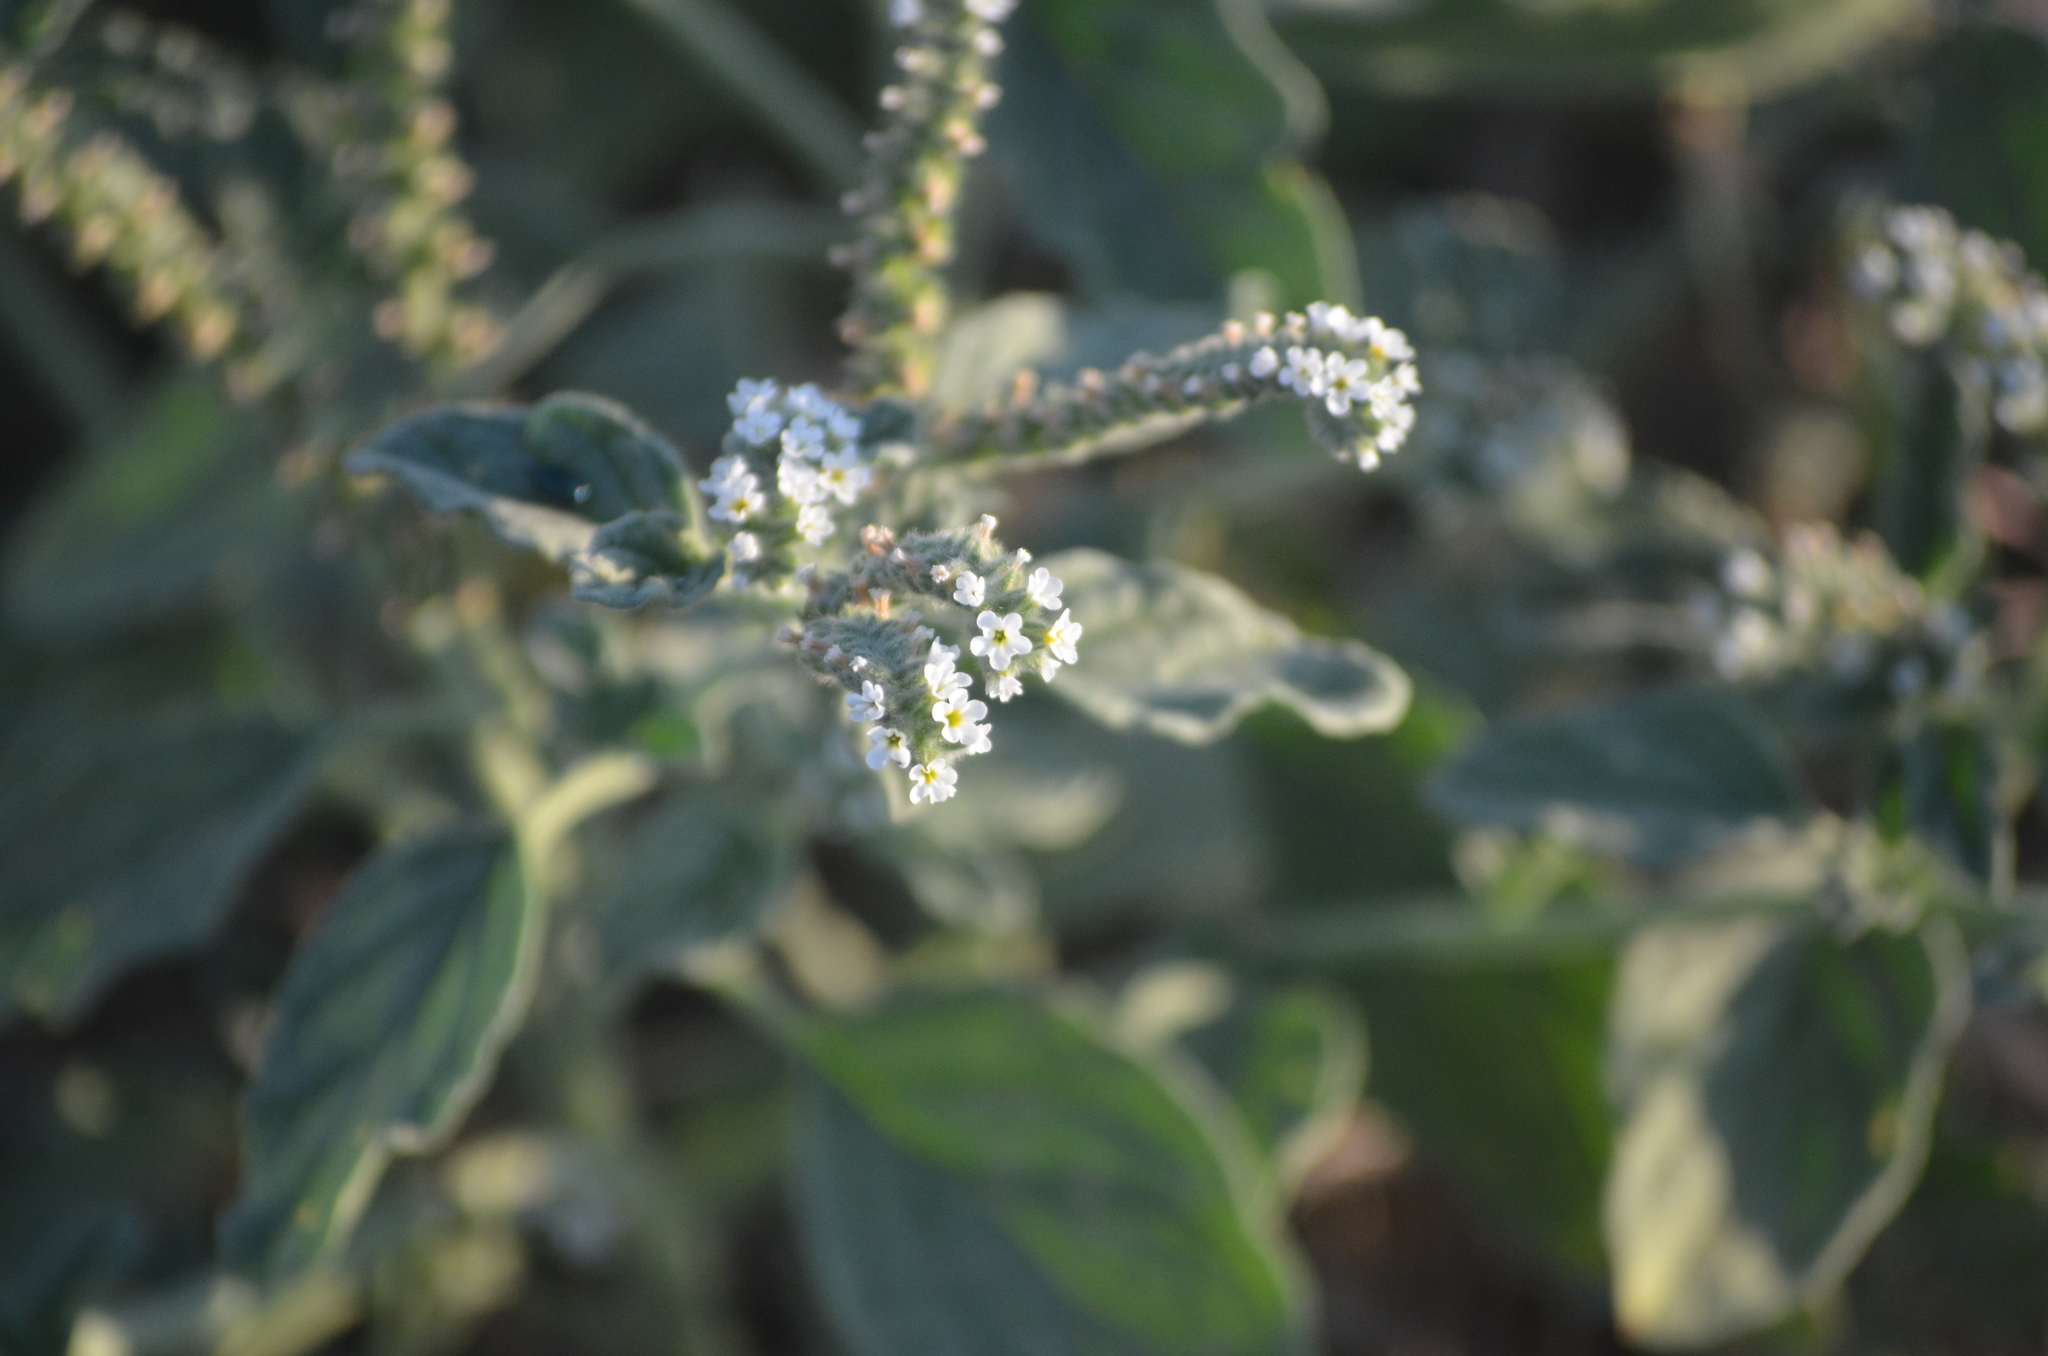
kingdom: Plantae
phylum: Tracheophyta
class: Magnoliopsida
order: Boraginales
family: Heliotropiaceae
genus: Heliotropium
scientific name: Heliotropium europaeum
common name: European heliotrope
